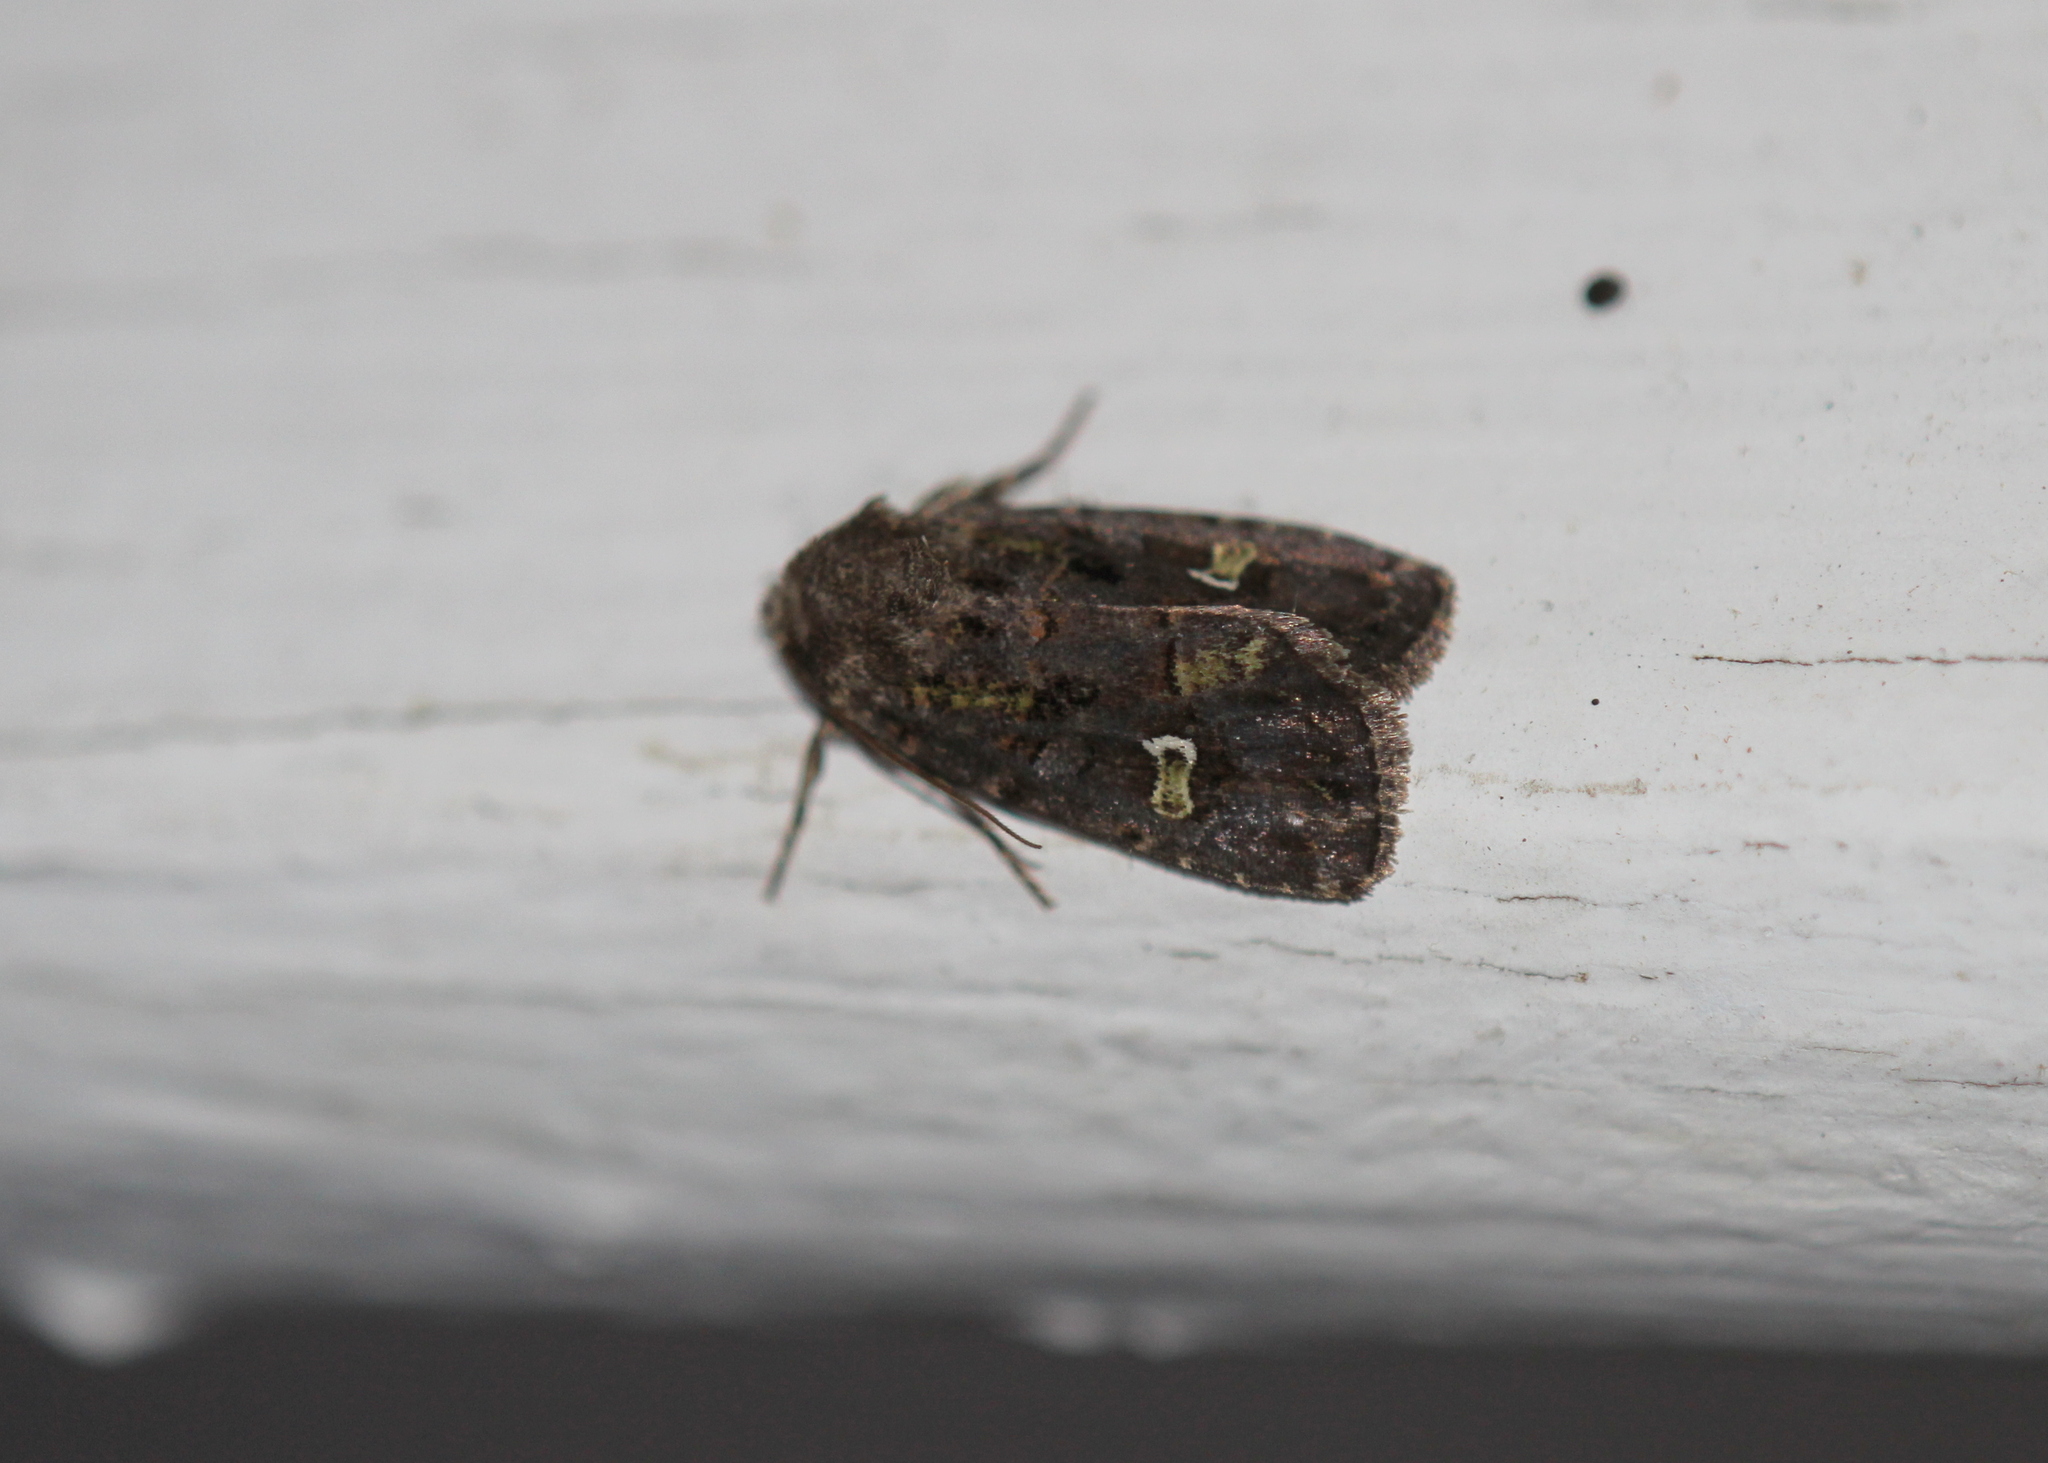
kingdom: Animalia
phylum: Arthropoda
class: Insecta
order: Lepidoptera
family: Noctuidae
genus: Lacinipolia
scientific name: Lacinipolia renigera
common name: Kidney-spotted minor
